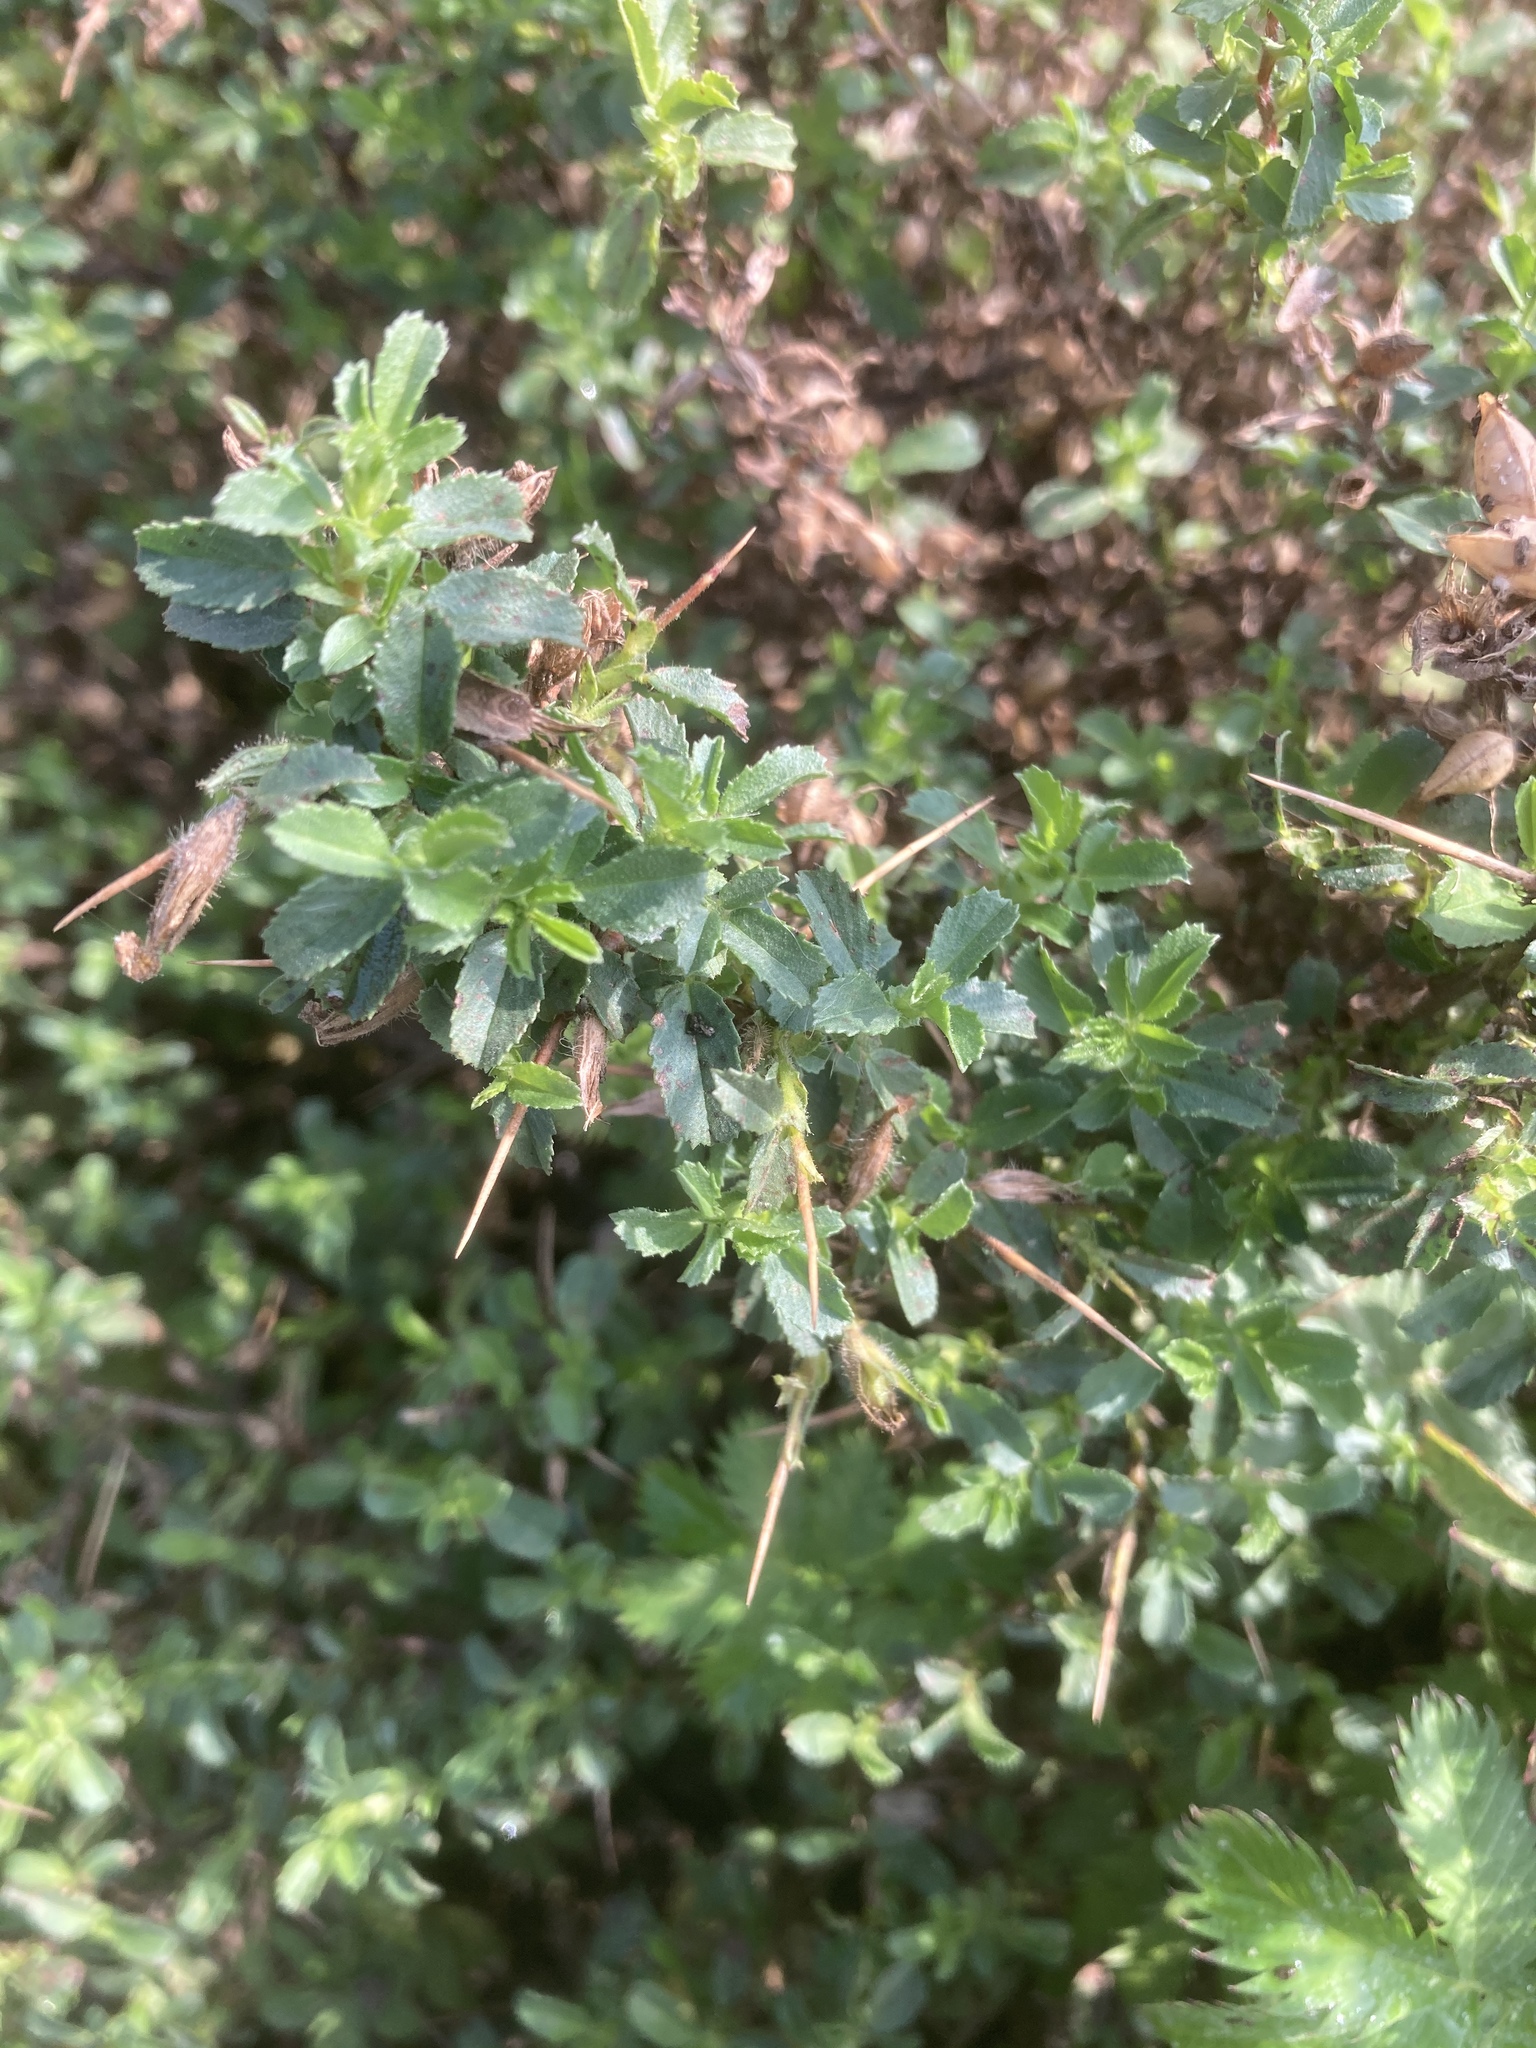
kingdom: Plantae
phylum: Tracheophyta
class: Magnoliopsida
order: Fabales
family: Fabaceae
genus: Ononis
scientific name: Ononis spinosa
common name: Spiny restharrow
